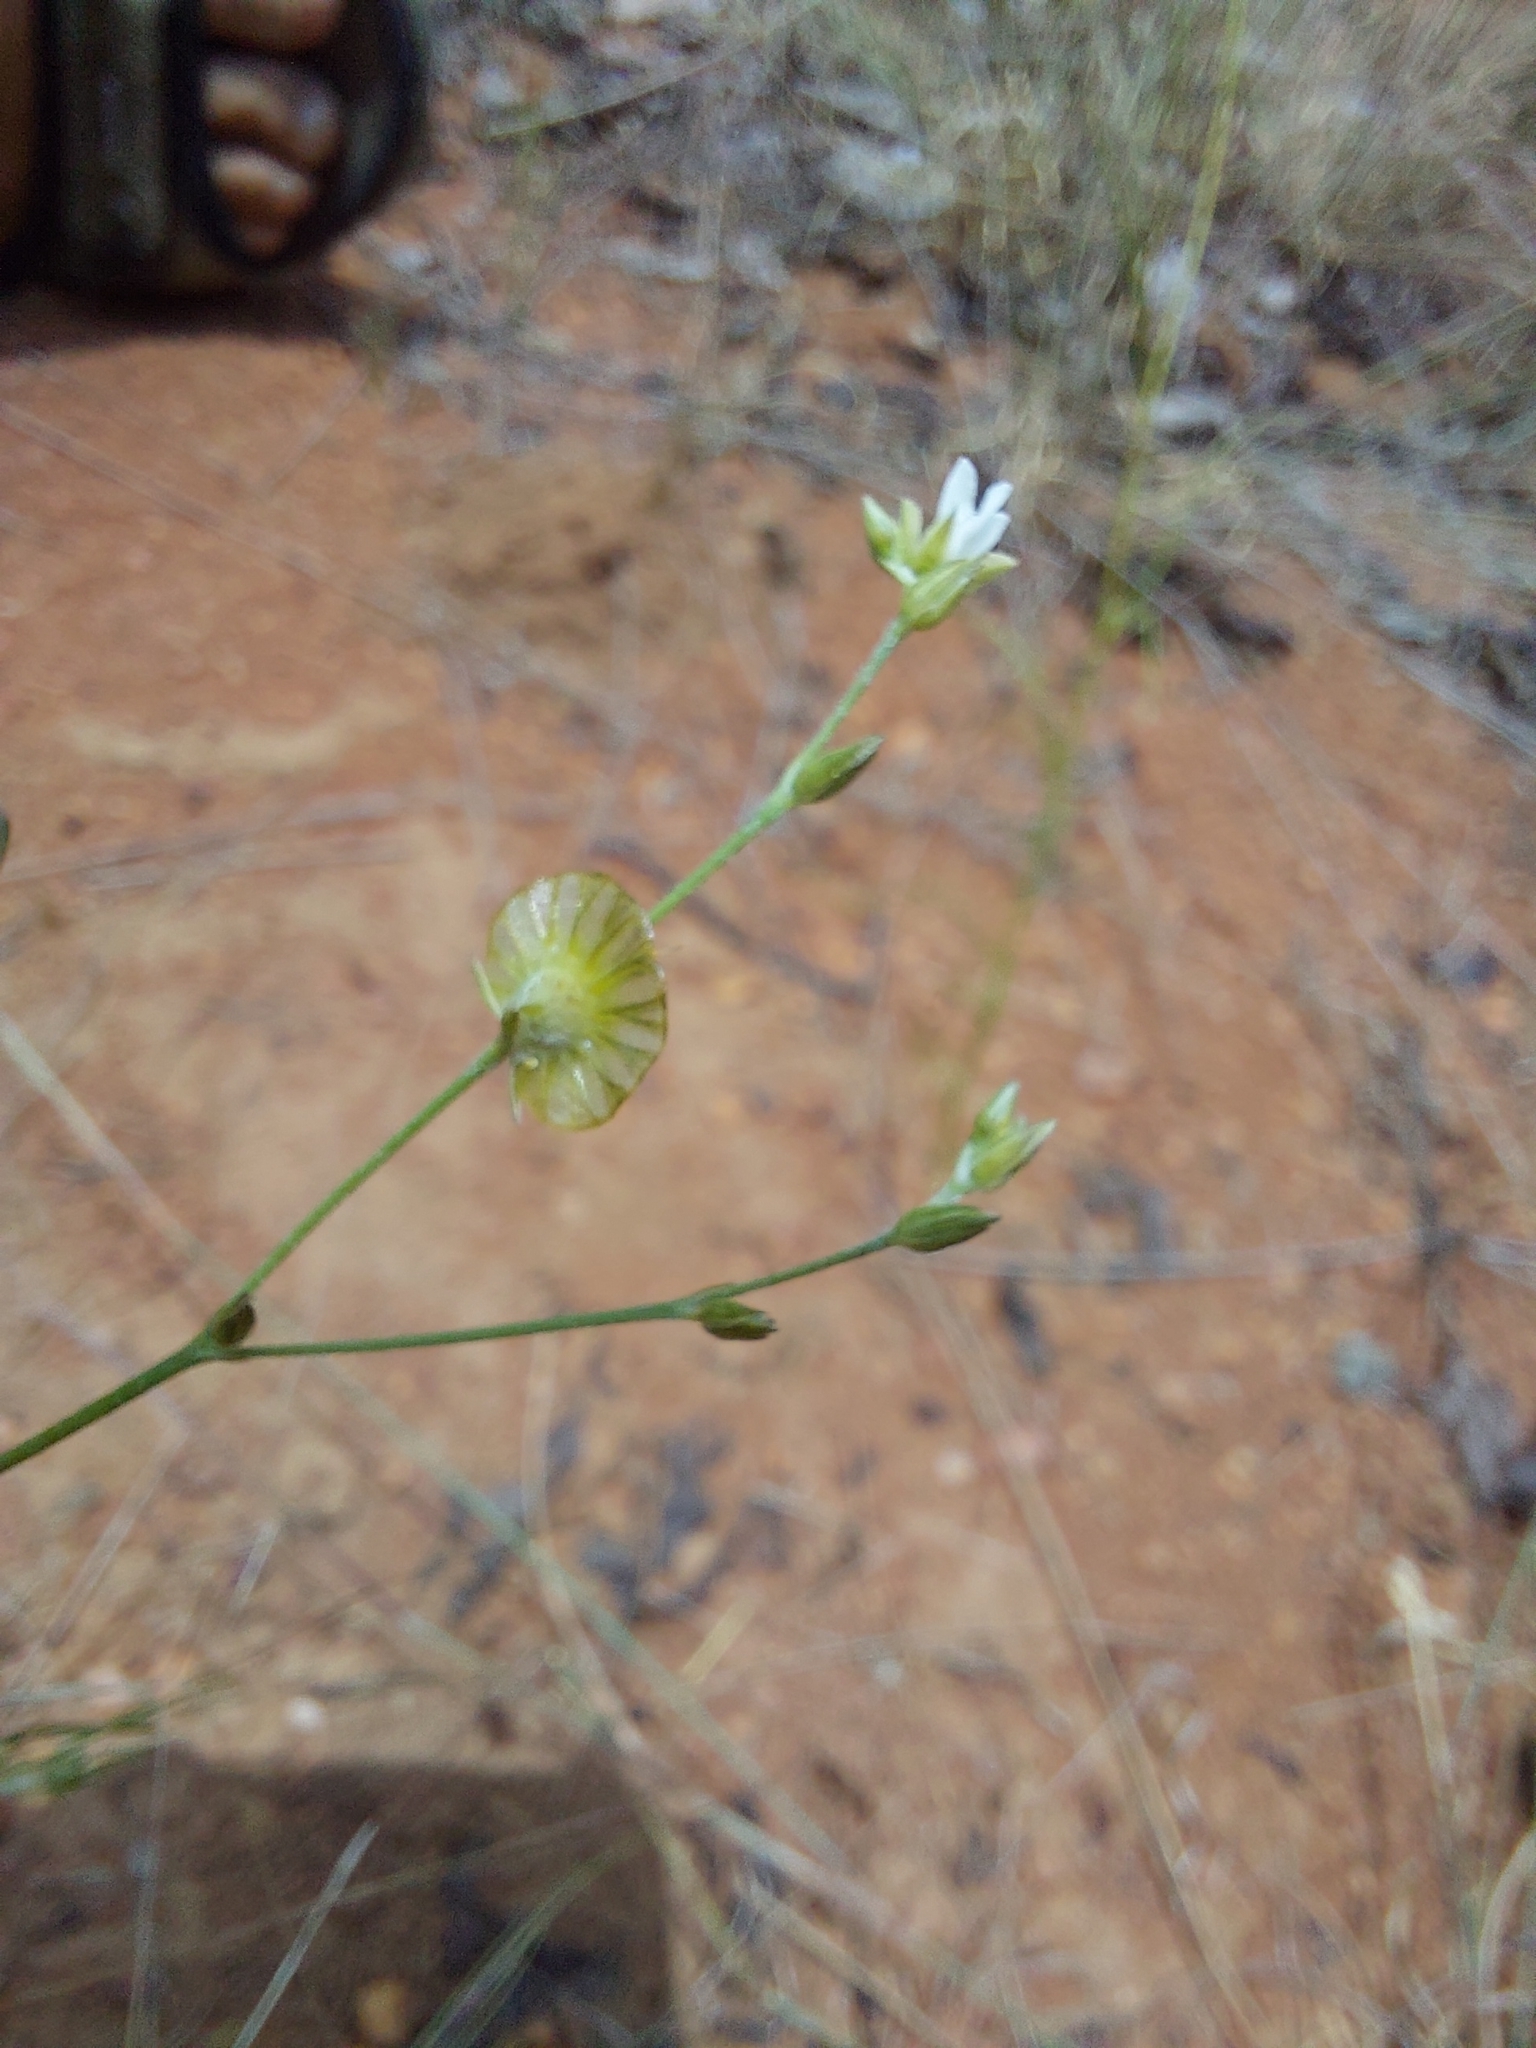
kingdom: Plantae
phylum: Tracheophyta
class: Magnoliopsida
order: Caryophyllales
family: Limeaceae
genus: Limeum
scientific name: Limeum fenestratum
